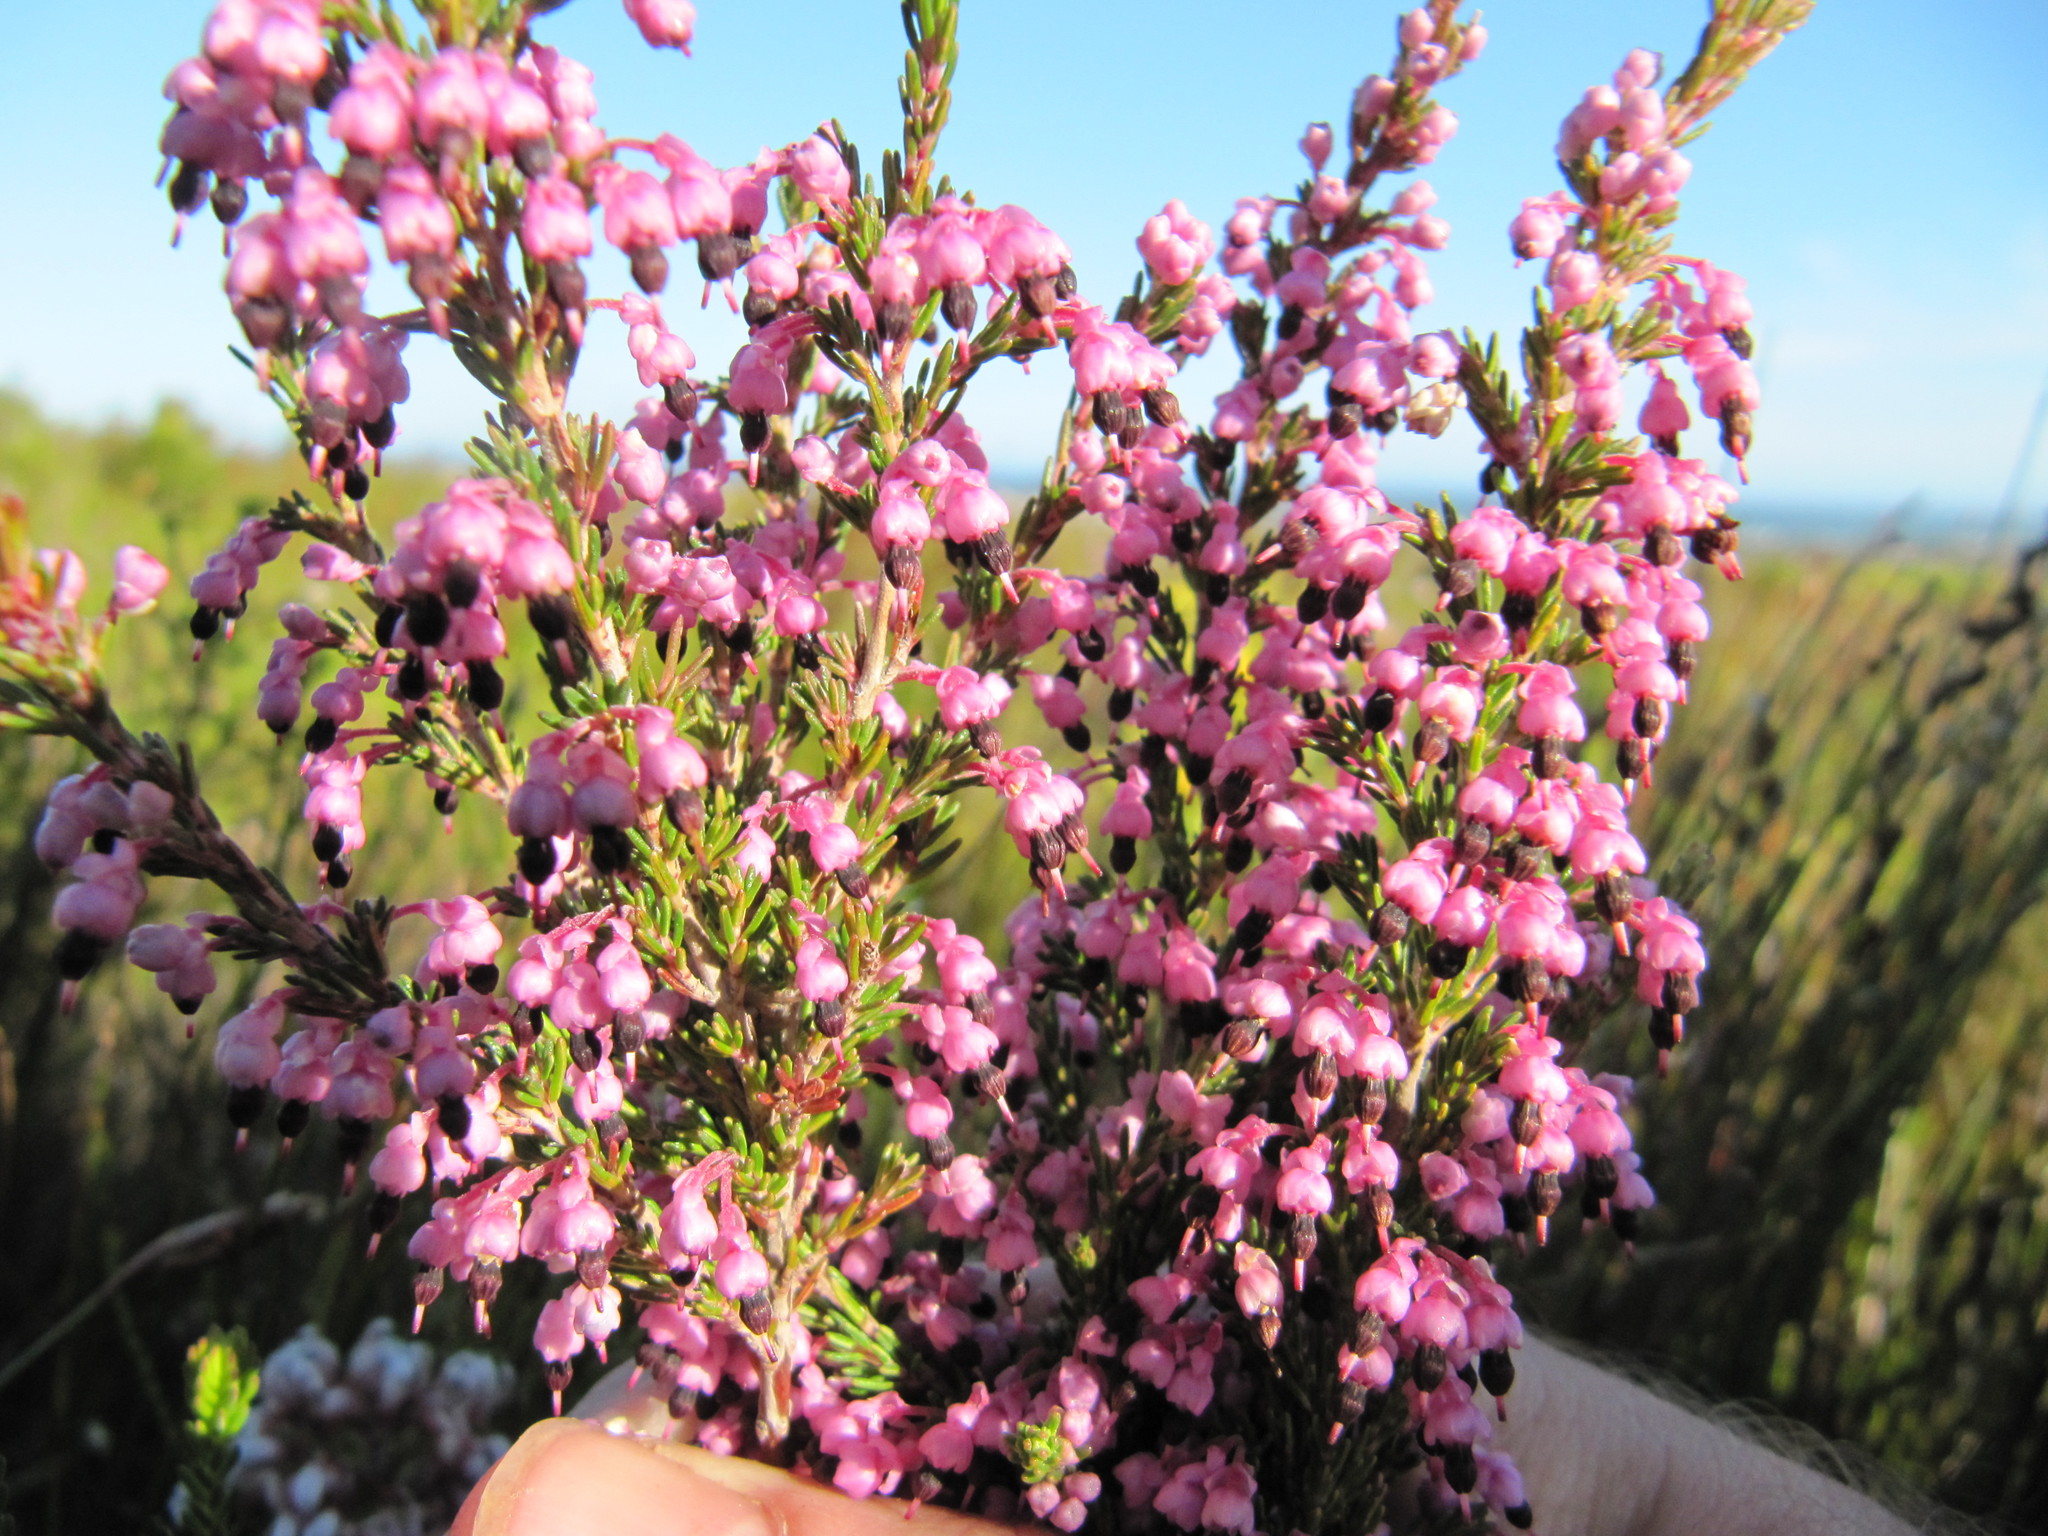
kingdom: Plantae
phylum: Tracheophyta
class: Magnoliopsida
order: Ericales
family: Ericaceae
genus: Erica
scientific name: Erica placentiflora
